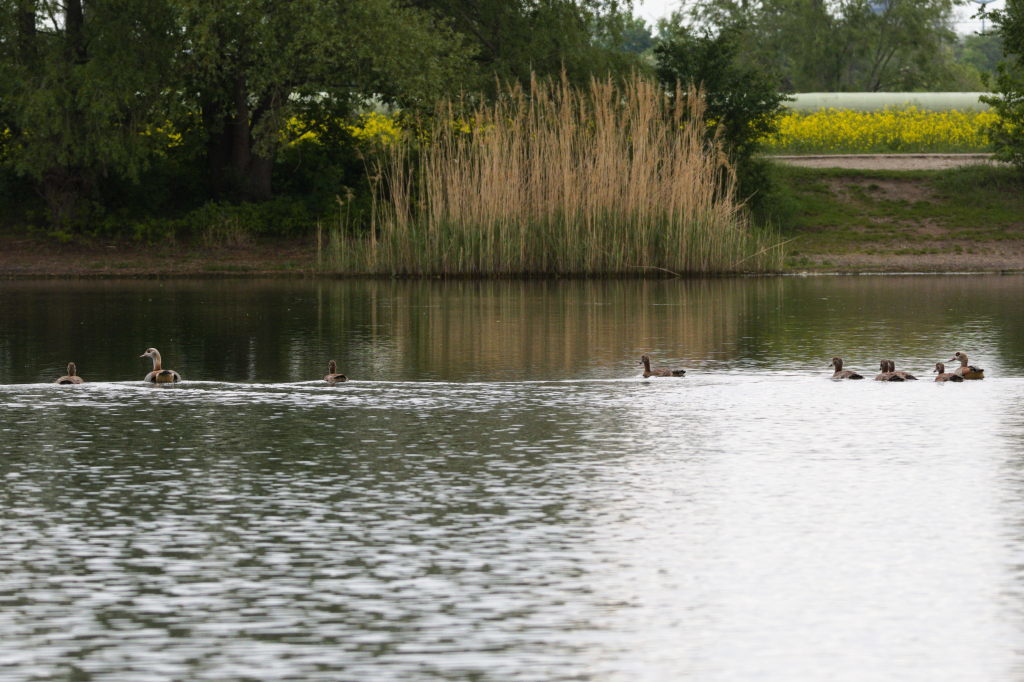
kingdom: Animalia
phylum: Chordata
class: Aves
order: Anseriformes
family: Anatidae
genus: Alopochen
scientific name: Alopochen aegyptiaca
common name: Egyptian goose
